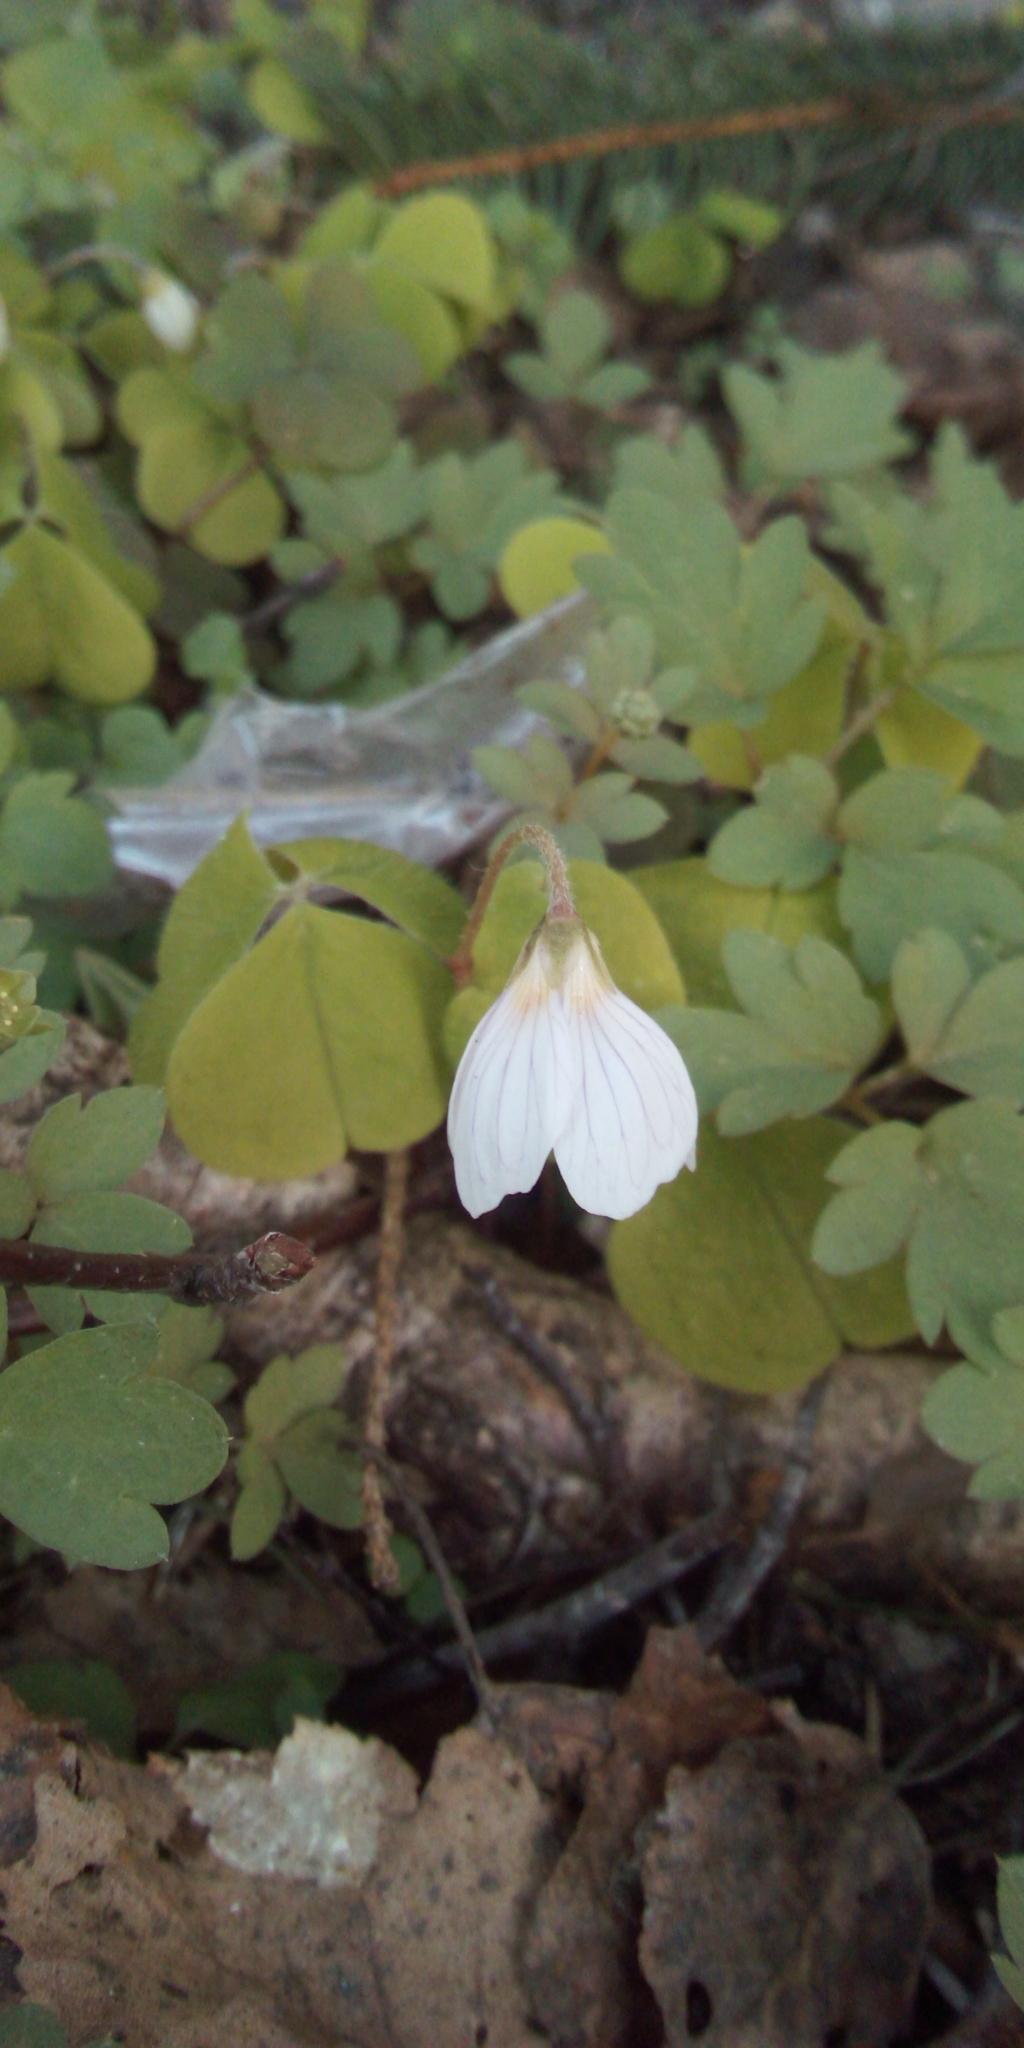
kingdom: Plantae
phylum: Tracheophyta
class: Magnoliopsida
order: Oxalidales
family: Oxalidaceae
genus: Oxalis
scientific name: Oxalis acetosella
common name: Wood-sorrel
